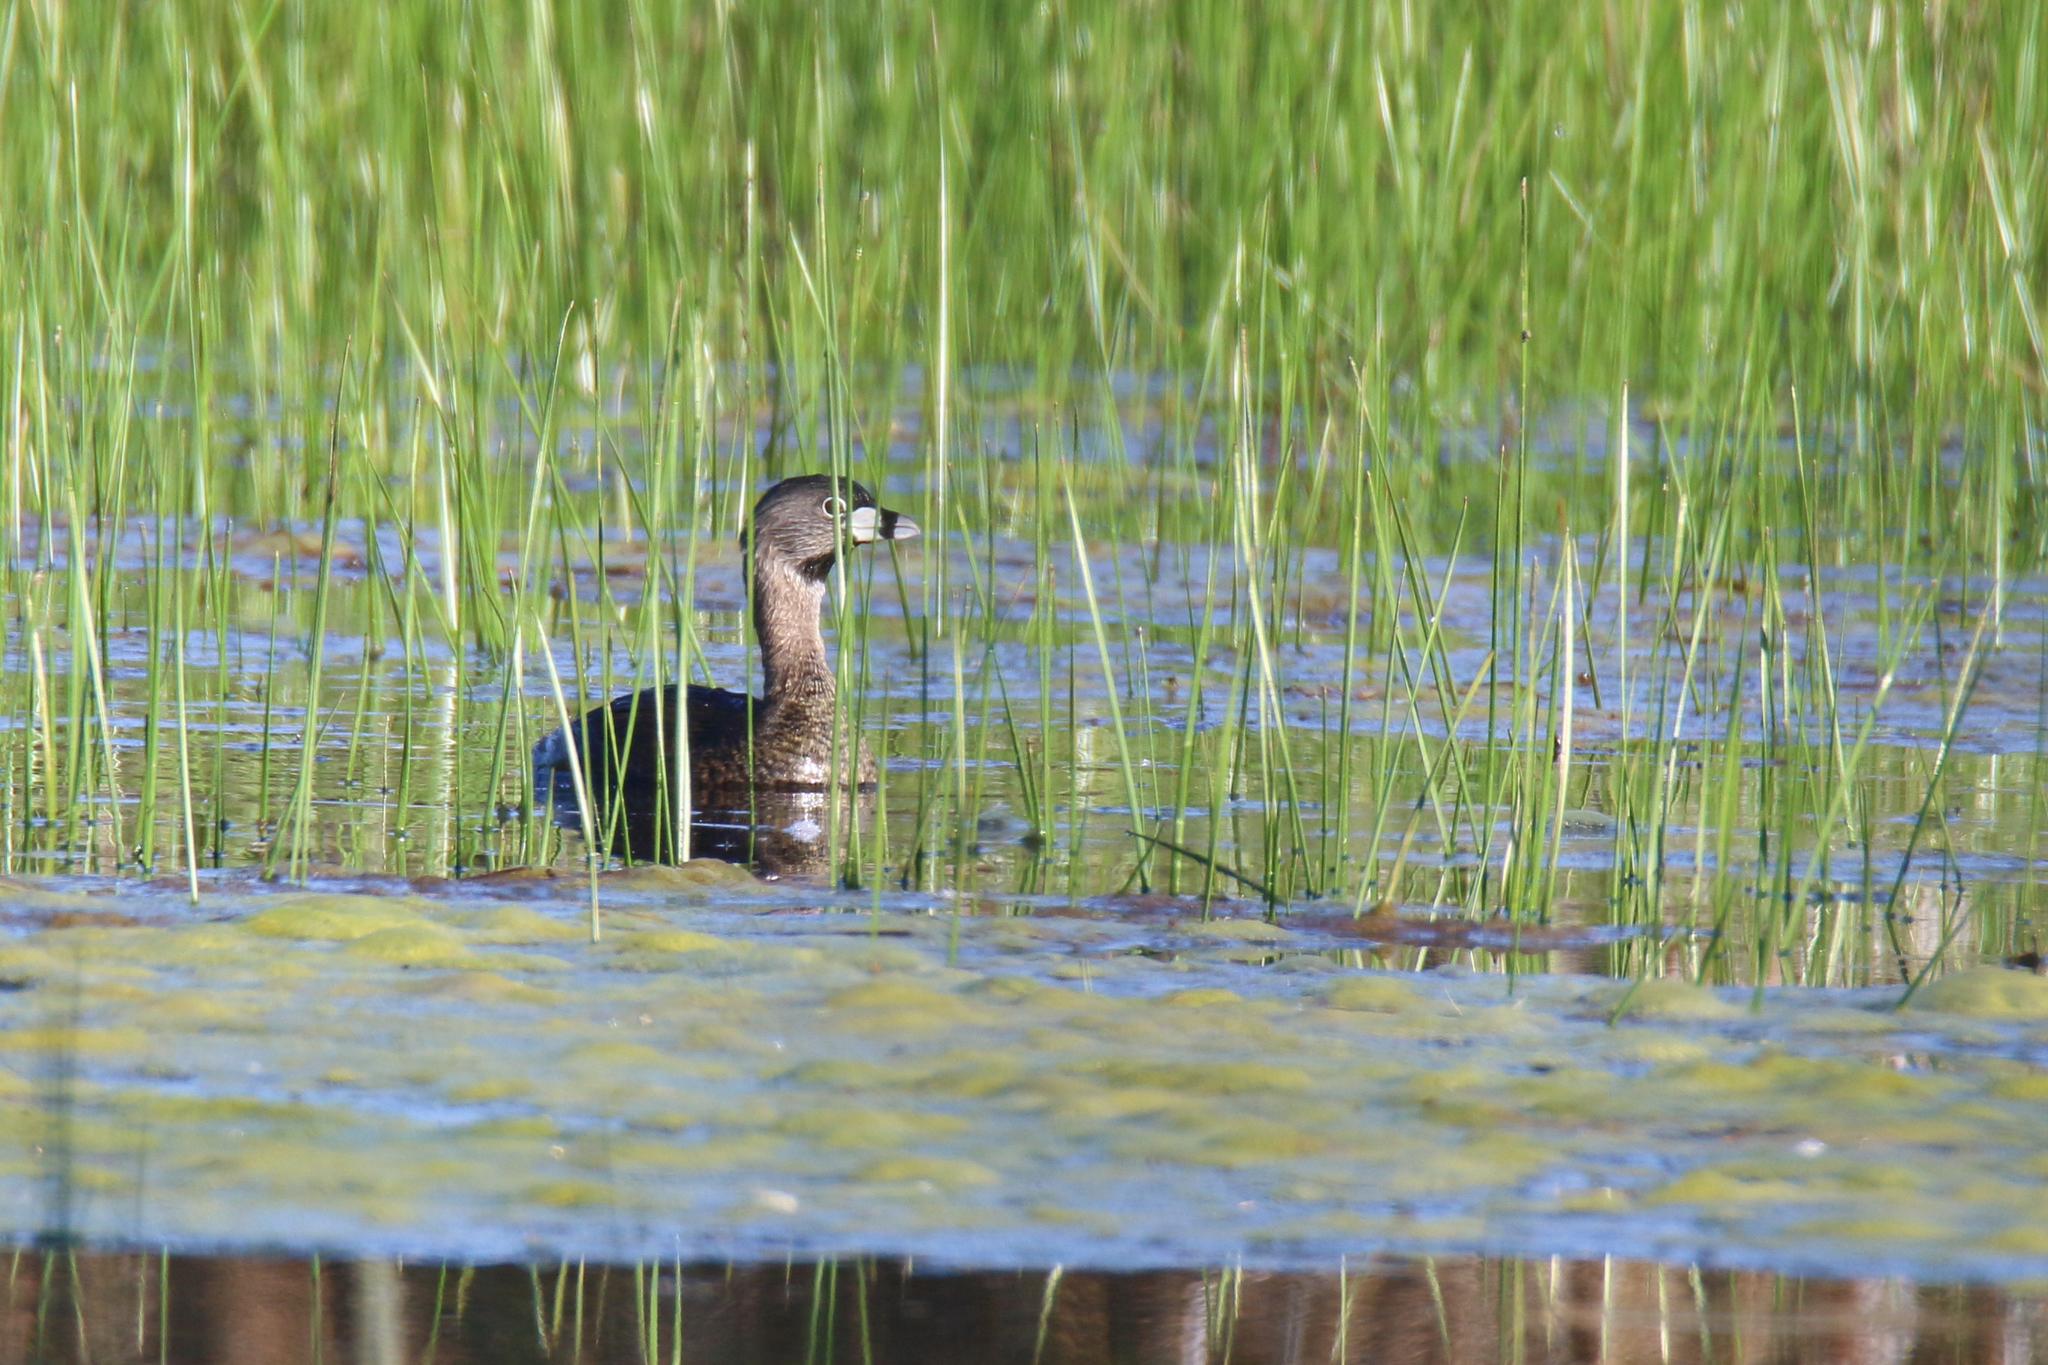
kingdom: Animalia
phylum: Chordata
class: Aves
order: Podicipediformes
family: Podicipedidae
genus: Podilymbus
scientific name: Podilymbus podiceps
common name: Pied-billed grebe
